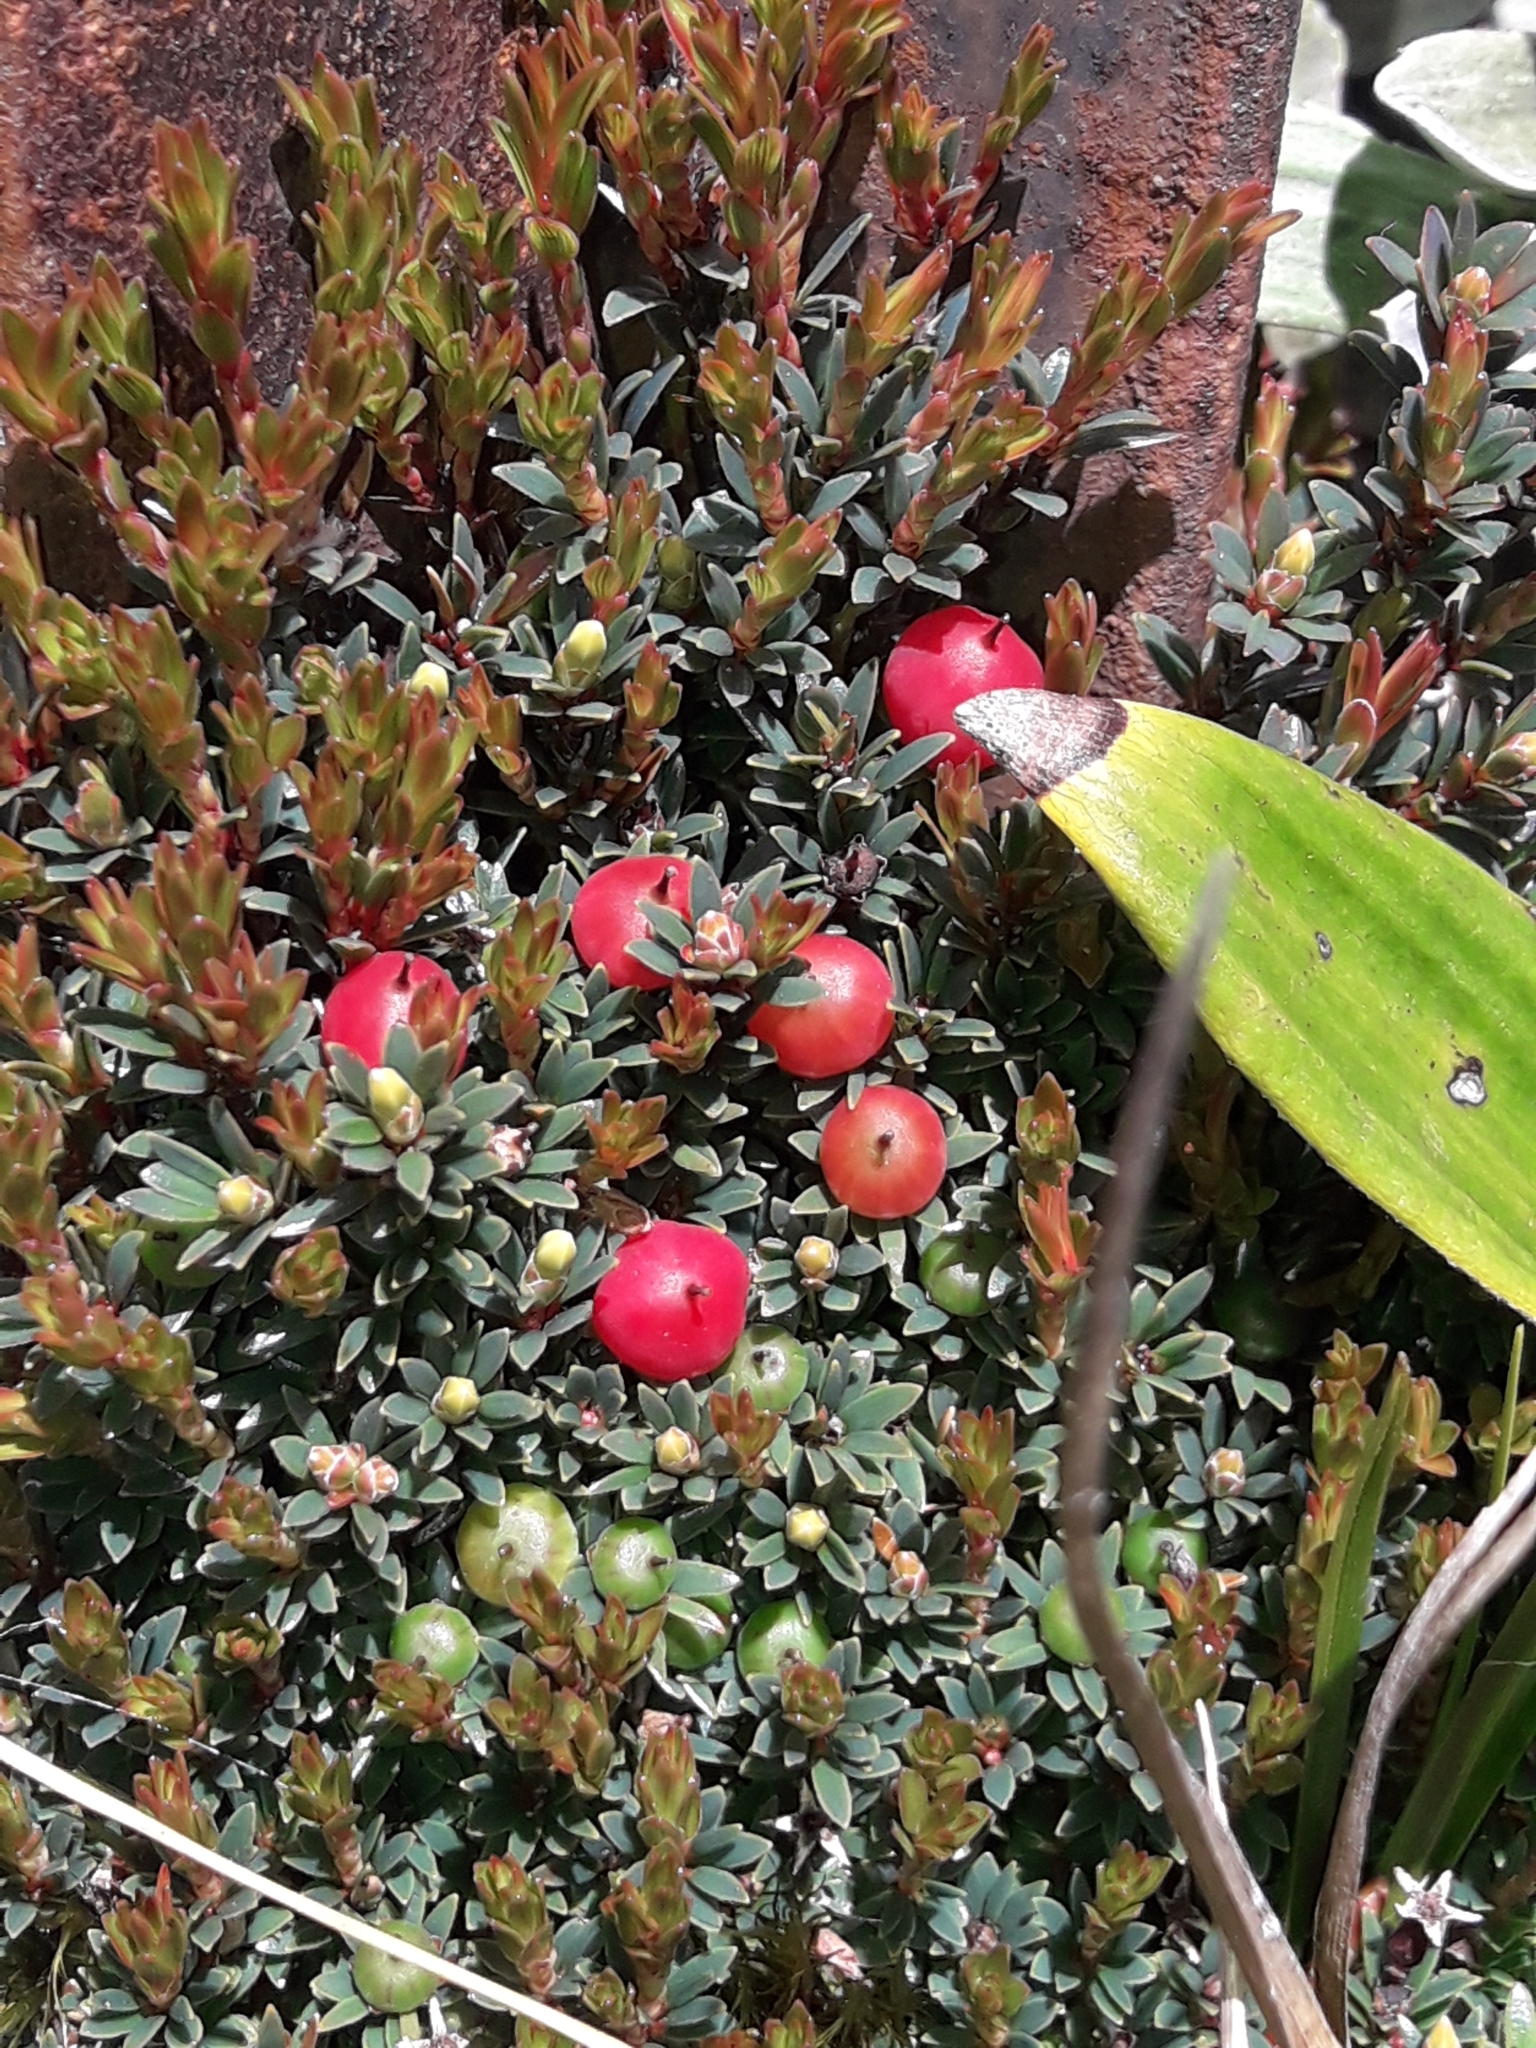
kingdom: Plantae
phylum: Tracheophyta
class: Magnoliopsida
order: Ericales
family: Ericaceae
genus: Pentachondra
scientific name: Pentachondra pumila
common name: Carpet-heath
